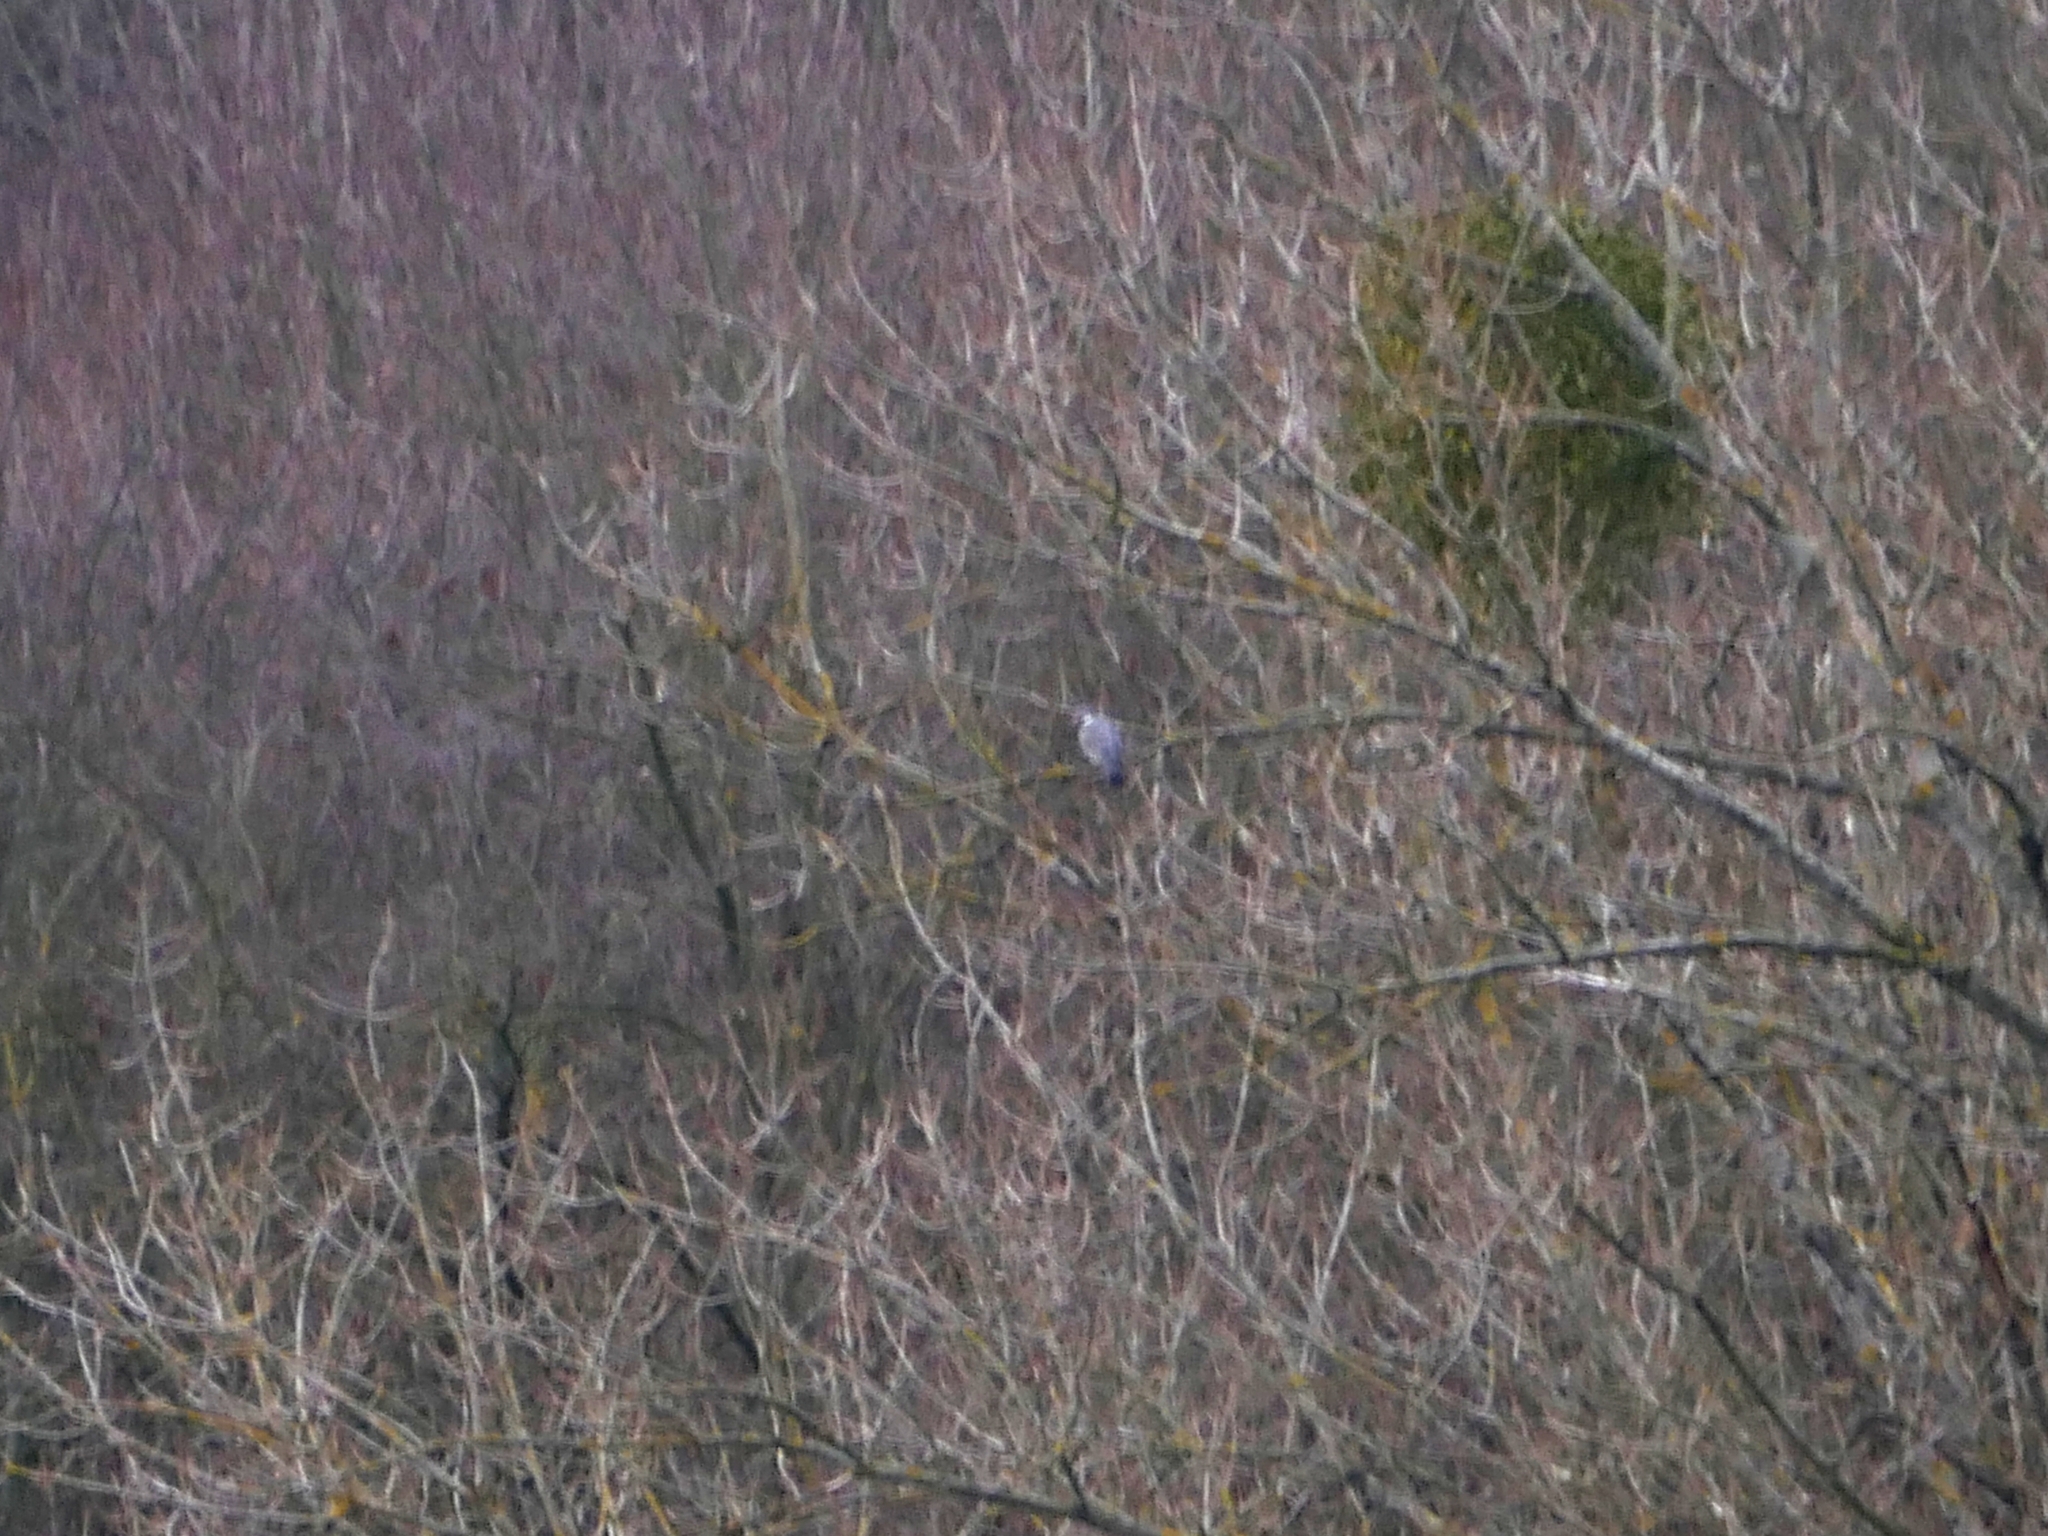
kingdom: Animalia
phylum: Chordata
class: Aves
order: Columbiformes
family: Columbidae
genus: Columba
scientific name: Columba palumbus
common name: Common wood pigeon
